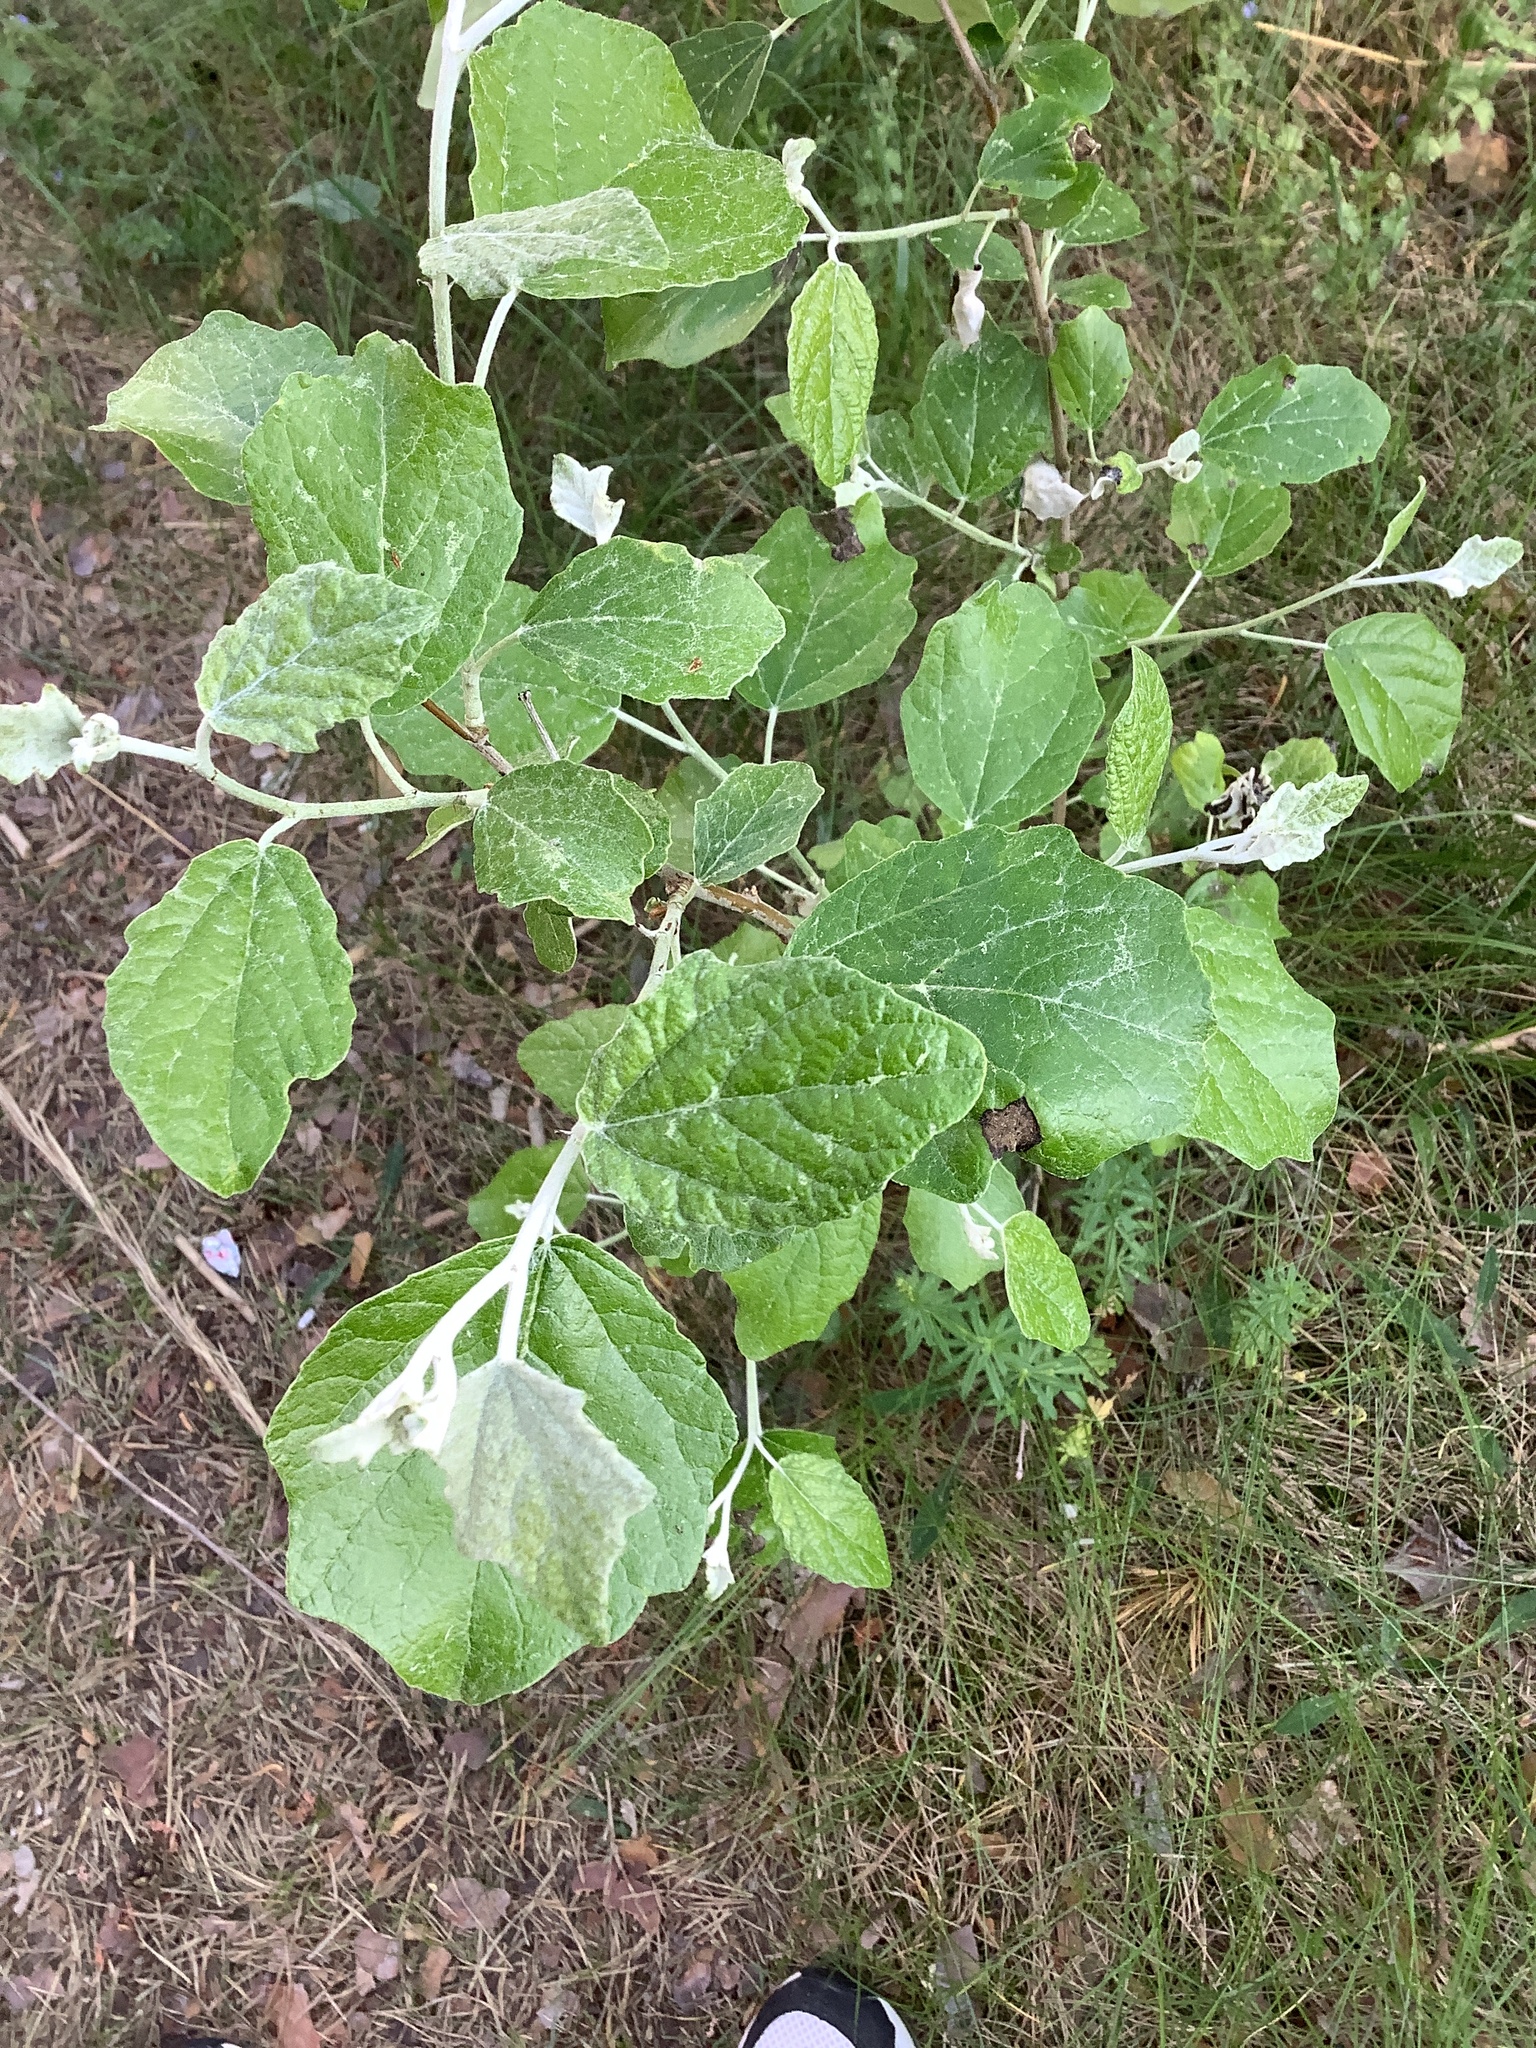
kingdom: Plantae
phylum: Tracheophyta
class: Magnoliopsida
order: Malpighiales
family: Salicaceae
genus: Populus
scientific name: Populus alba
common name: White poplar
